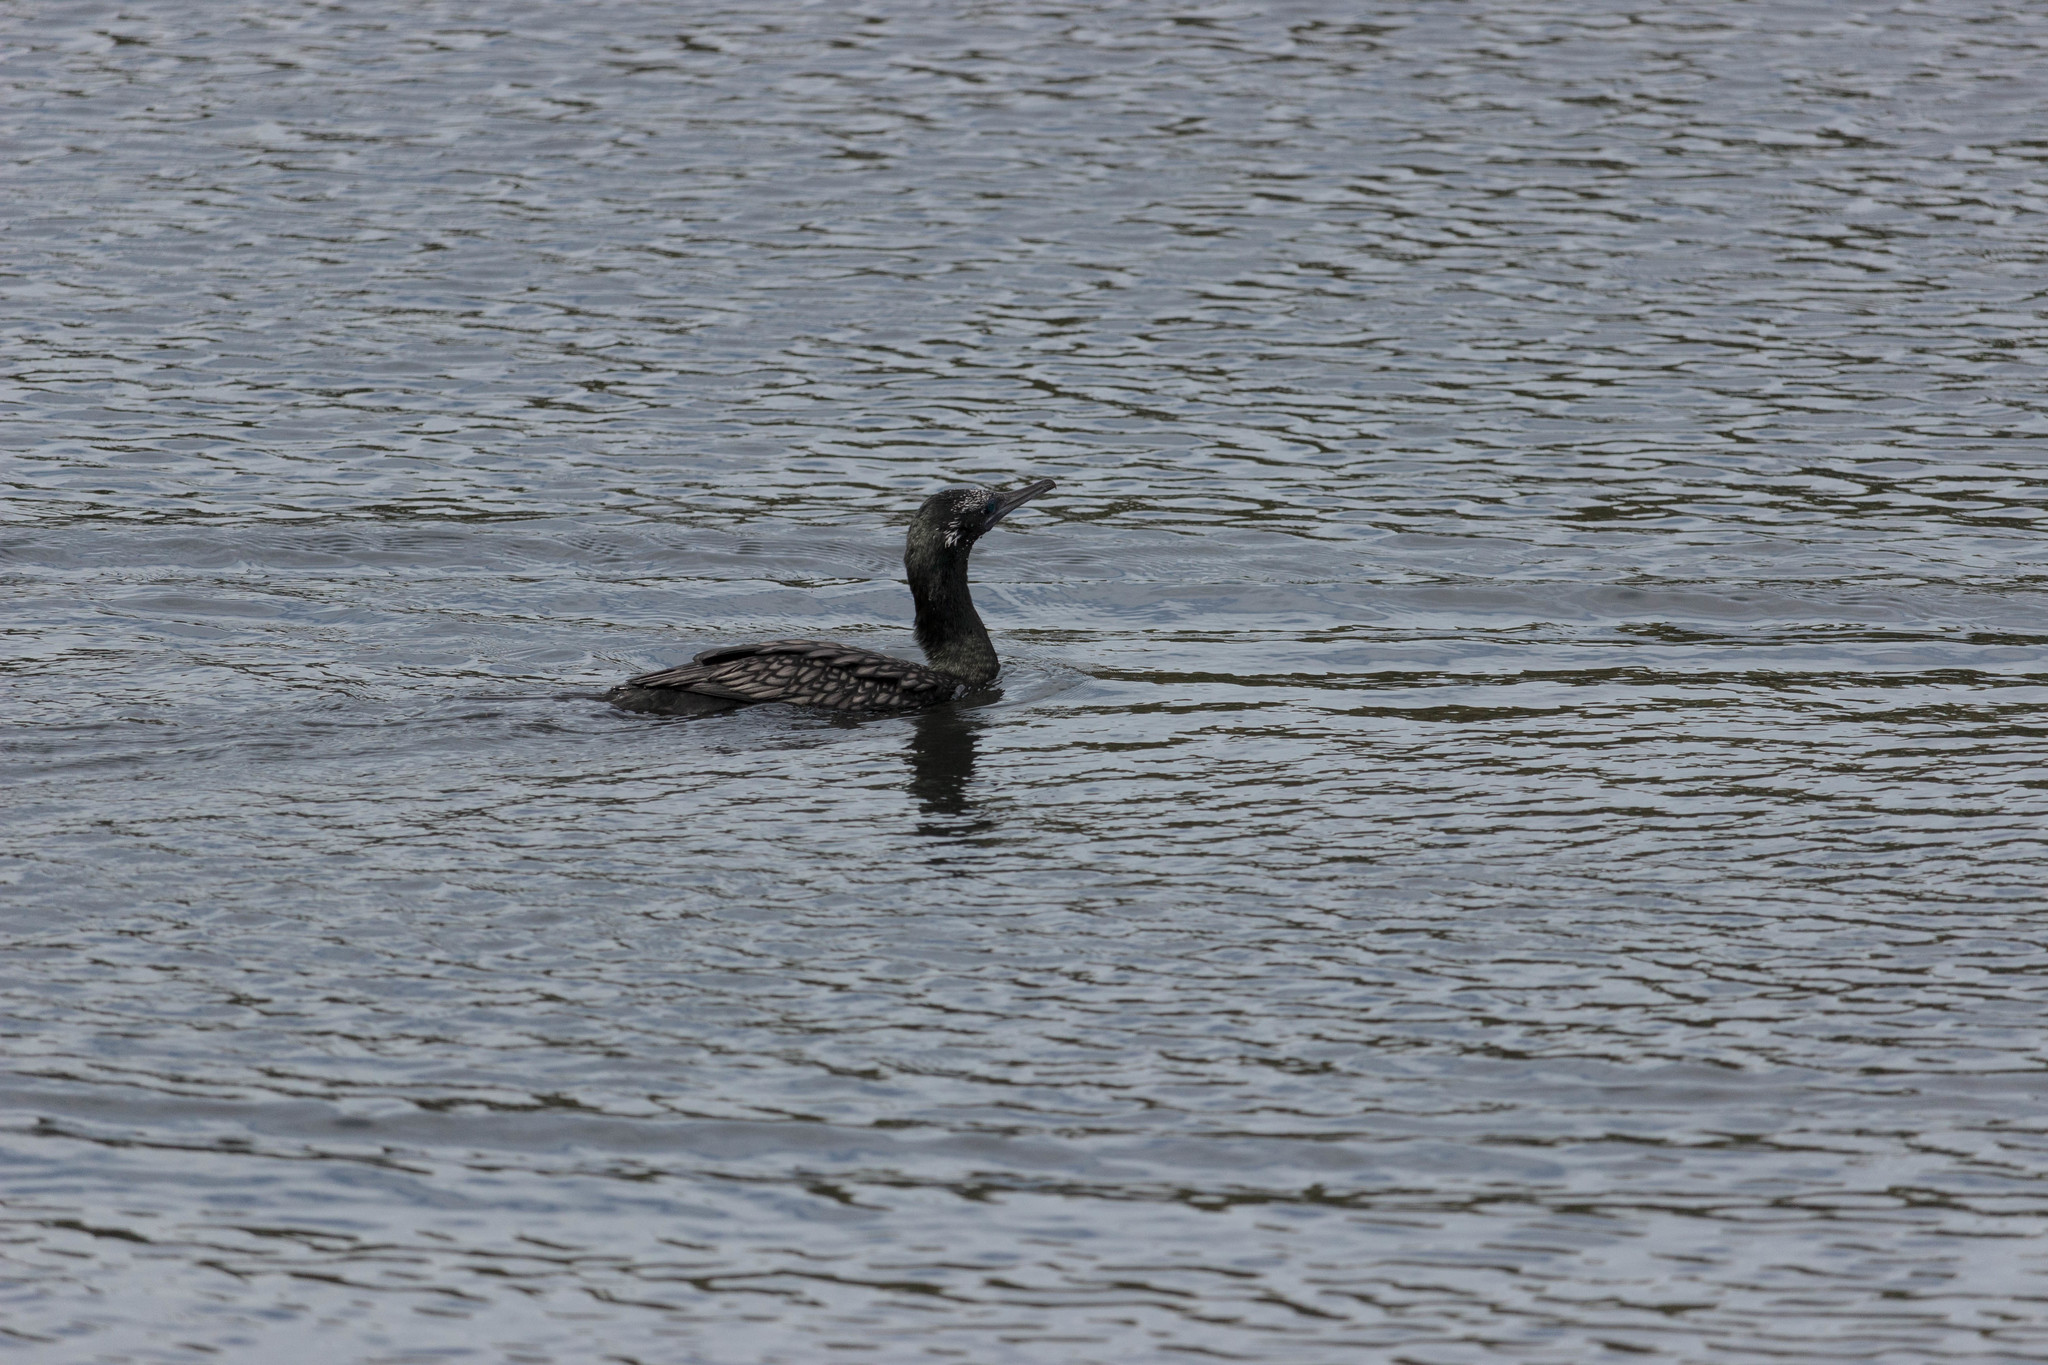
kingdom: Animalia
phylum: Chordata
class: Aves
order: Suliformes
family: Phalacrocoracidae
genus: Phalacrocorax
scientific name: Phalacrocorax sulcirostris
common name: Little black cormorant
